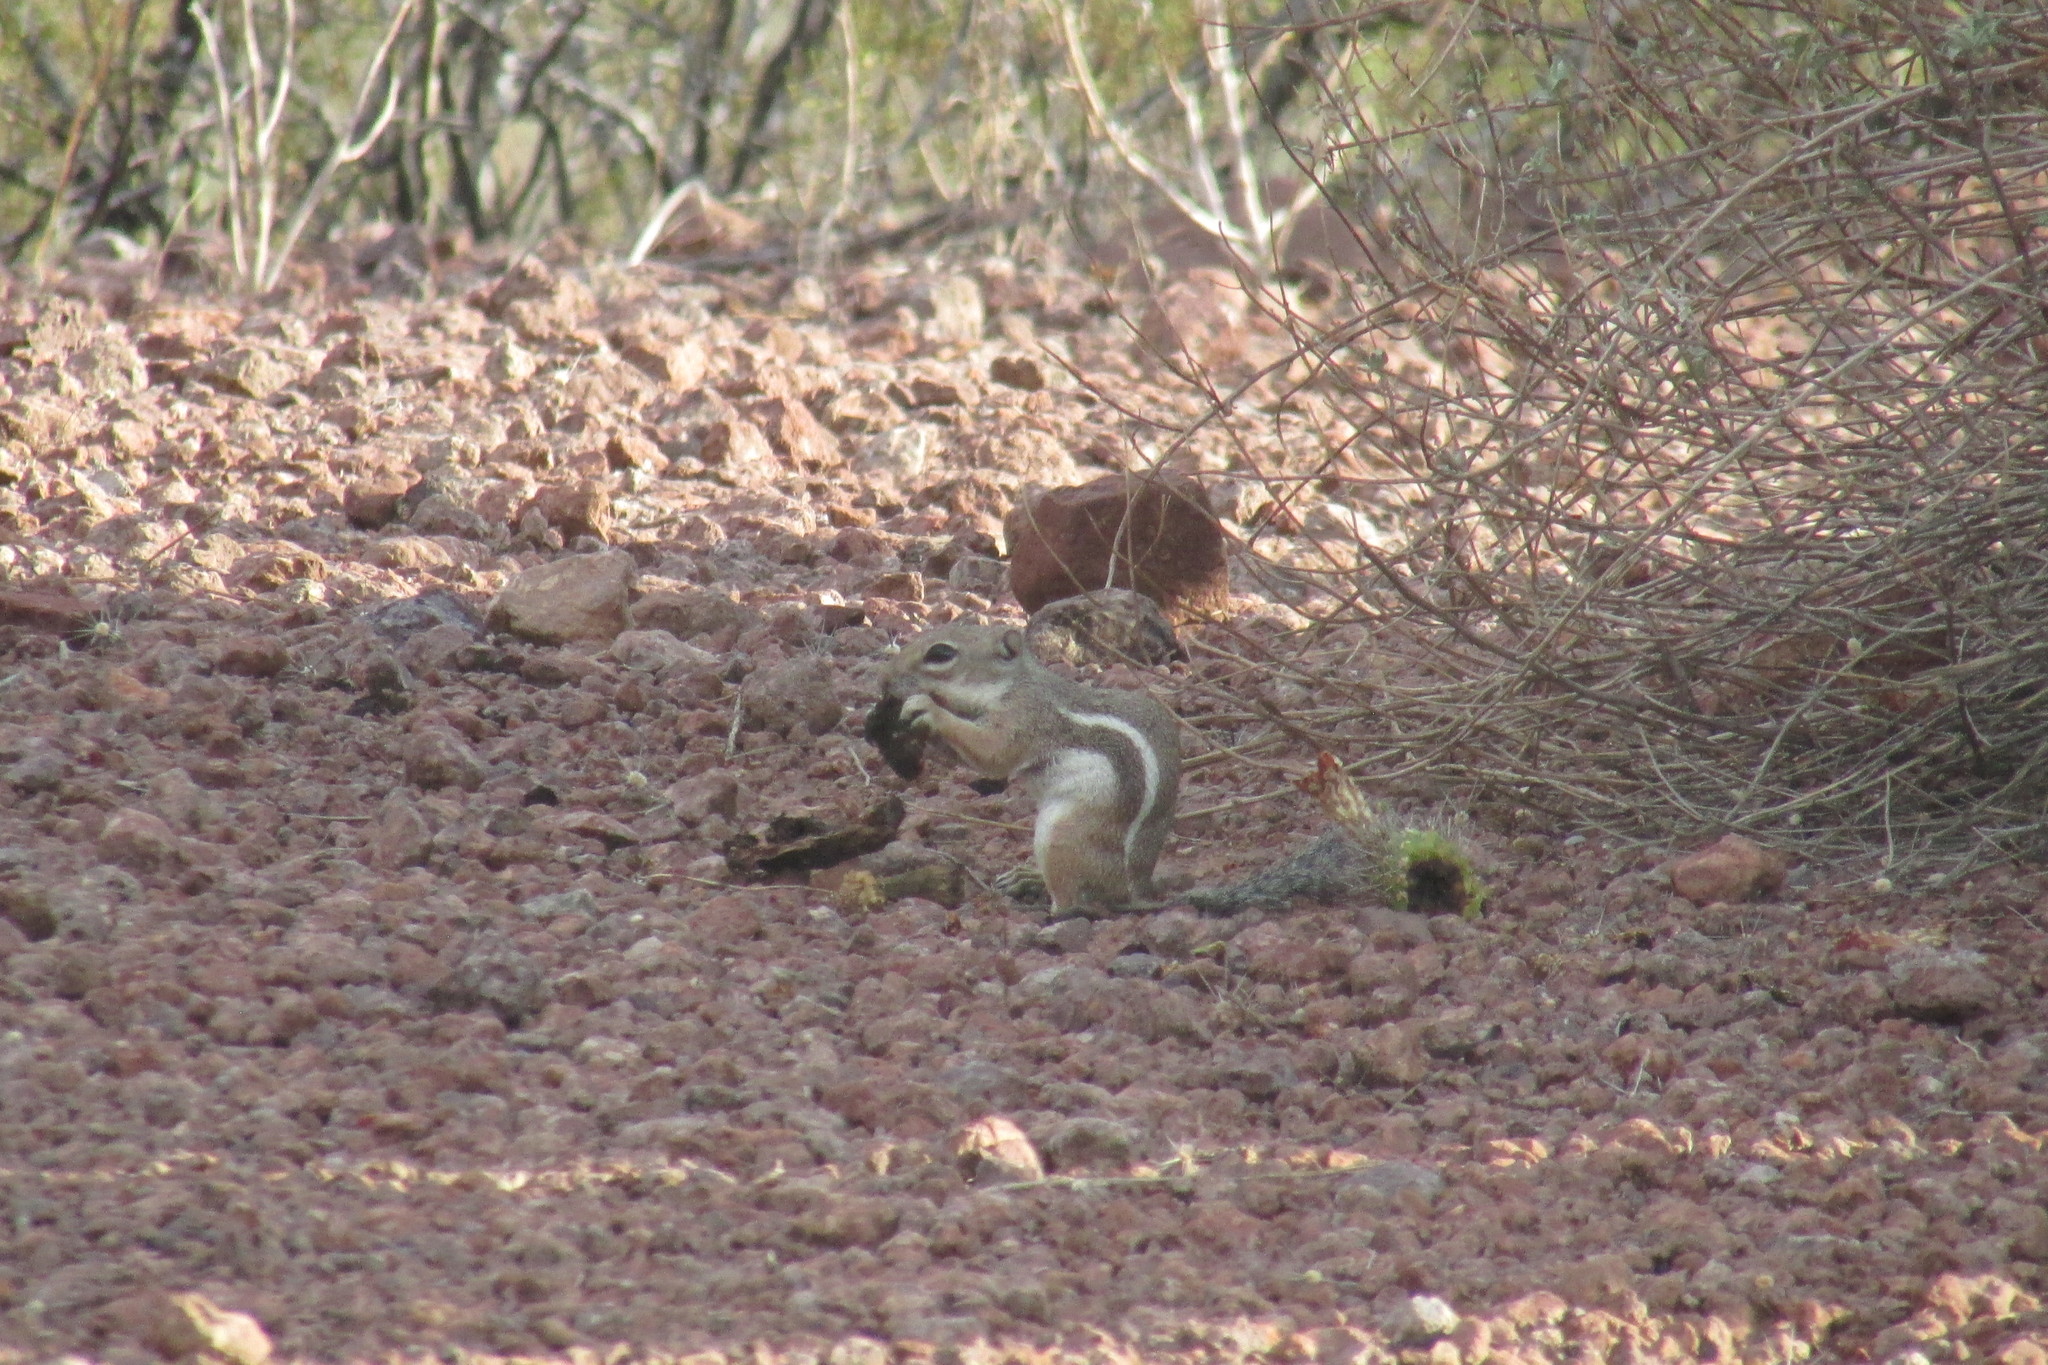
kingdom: Animalia
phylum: Chordata
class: Mammalia
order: Rodentia
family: Sciuridae
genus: Ammospermophilus
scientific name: Ammospermophilus harrisii
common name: Harris's antelope squirrel
